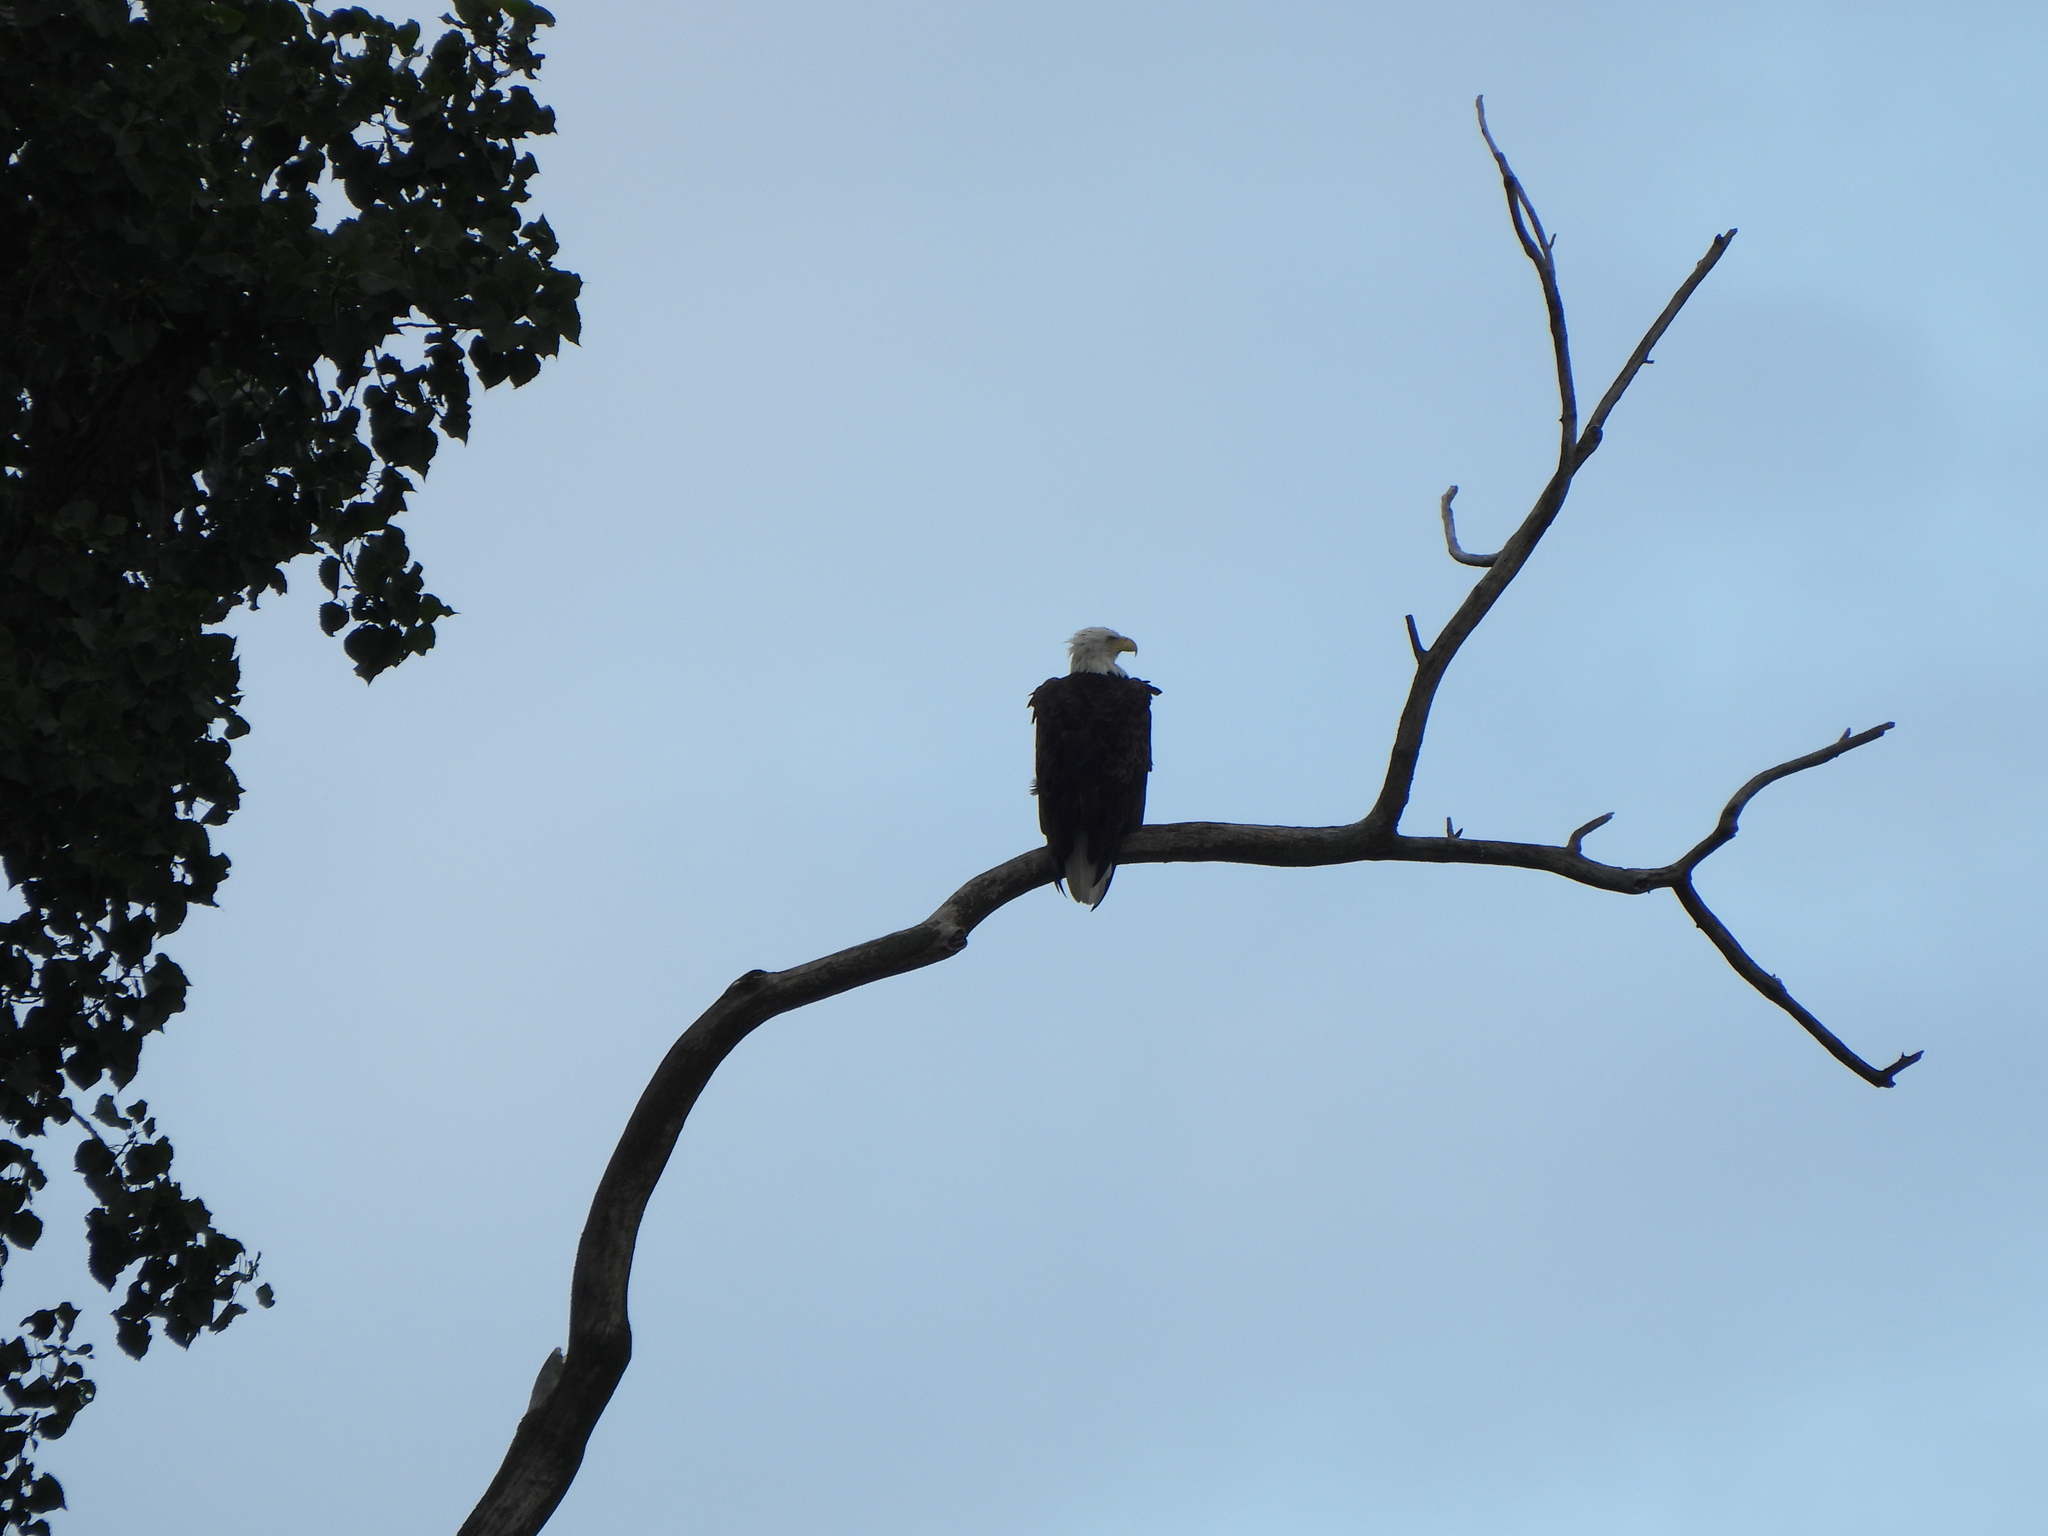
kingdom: Animalia
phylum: Chordata
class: Aves
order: Accipitriformes
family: Accipitridae
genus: Haliaeetus
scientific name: Haliaeetus leucocephalus
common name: Bald eagle
